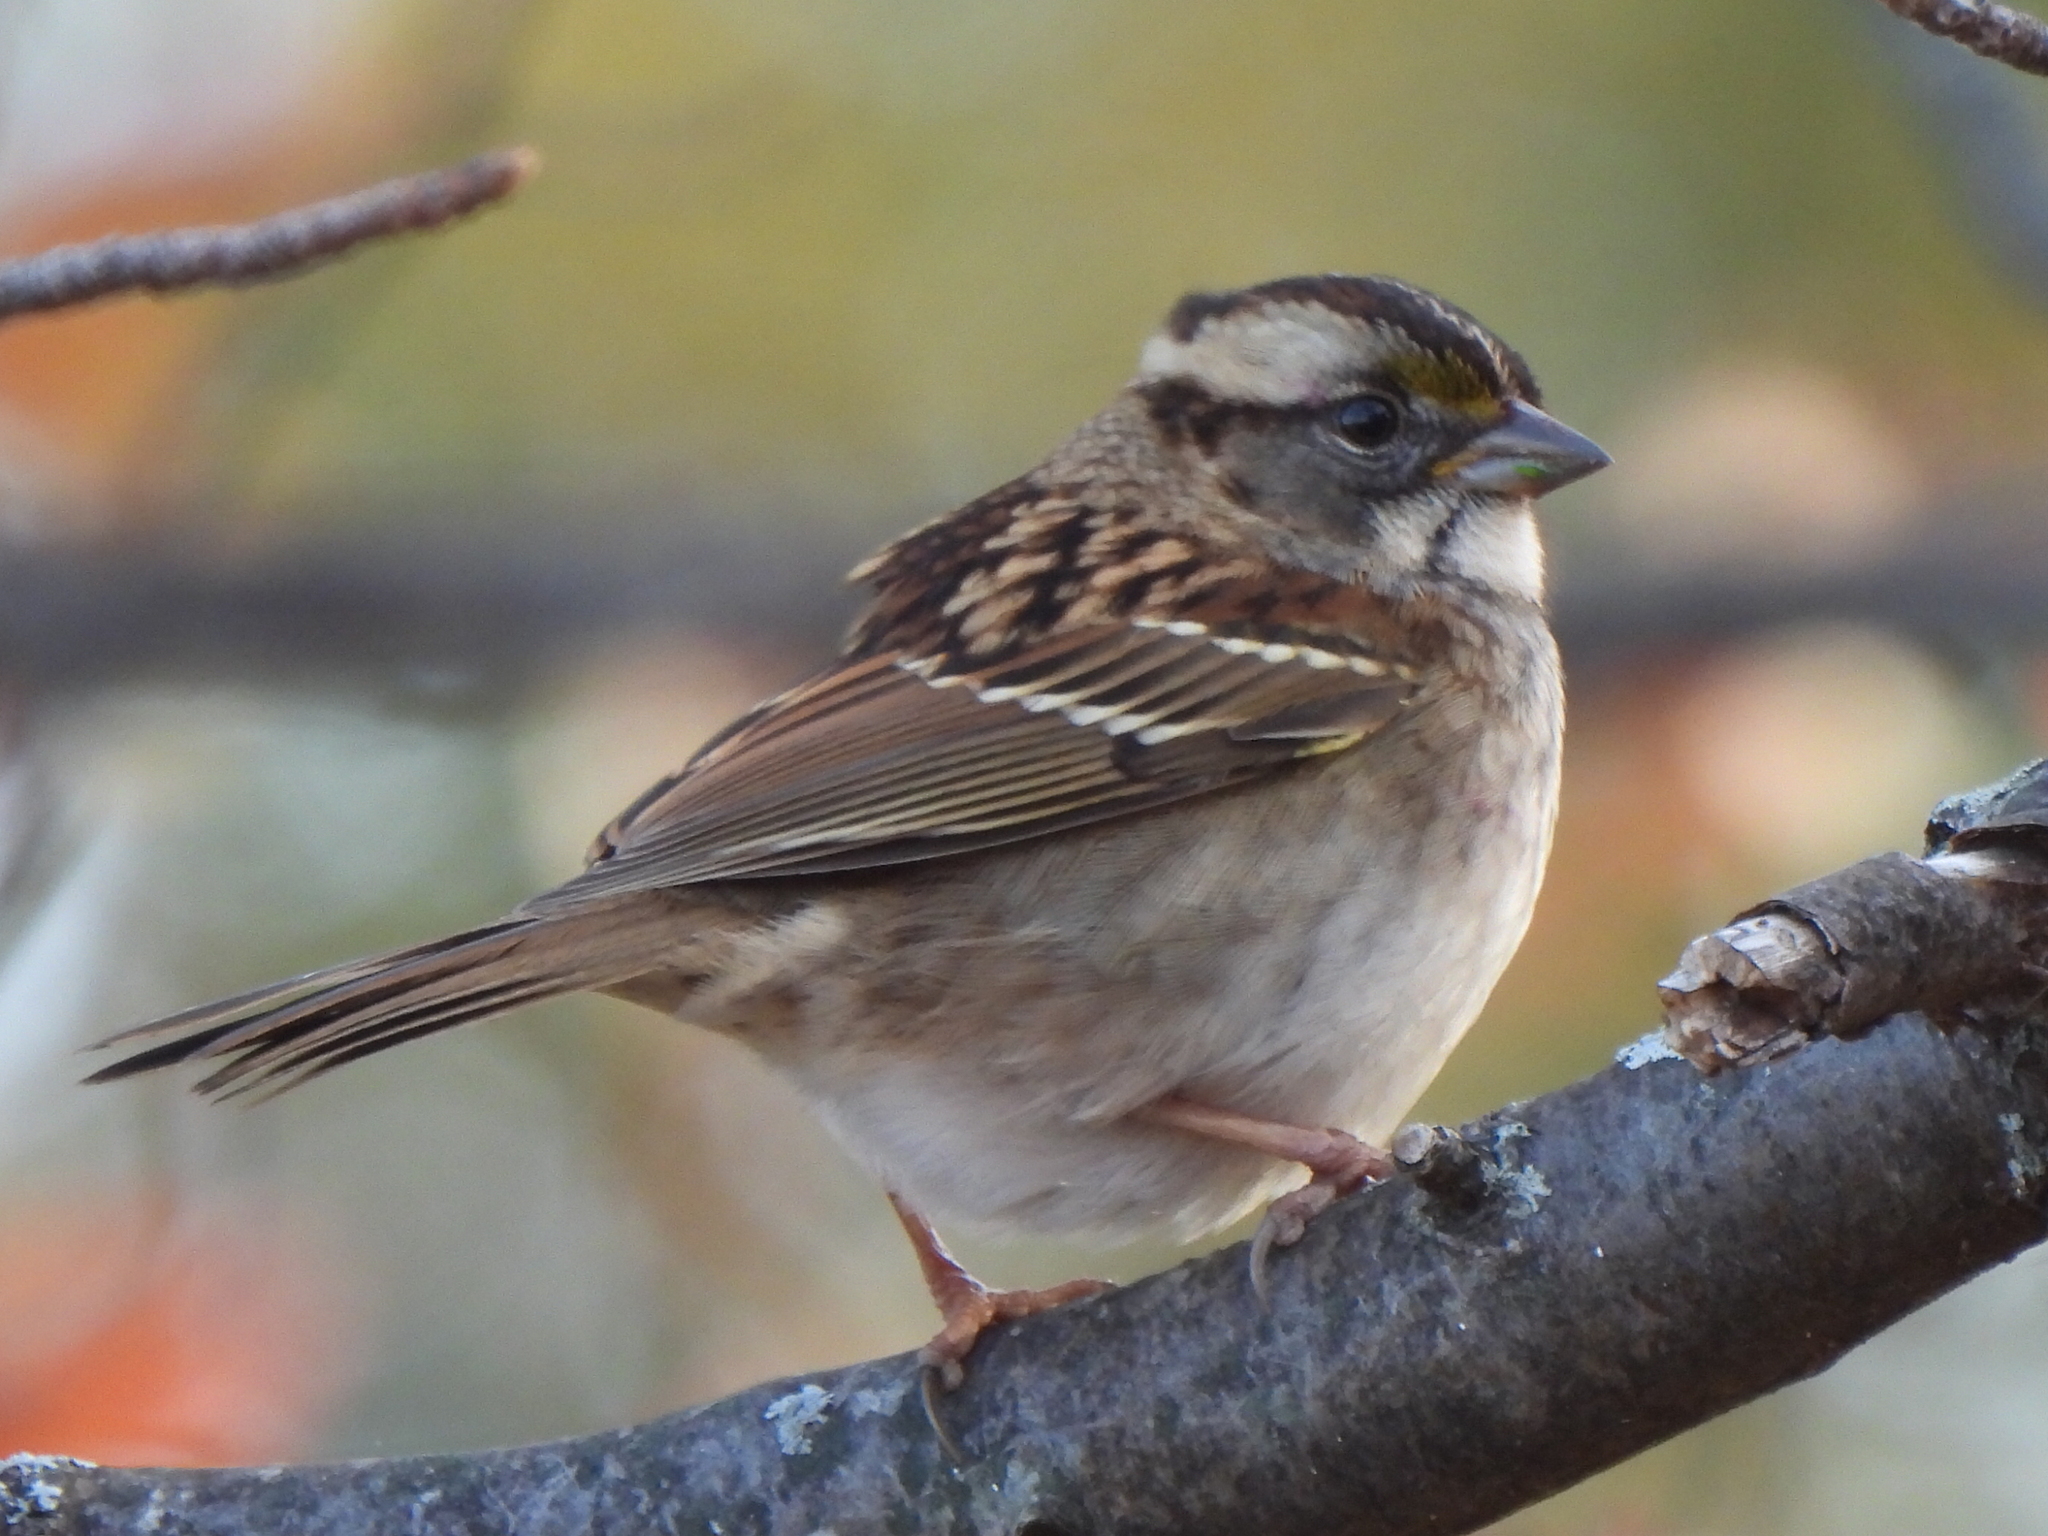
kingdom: Animalia
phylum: Chordata
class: Aves
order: Passeriformes
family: Passerellidae
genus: Zonotrichia
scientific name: Zonotrichia albicollis
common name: White-throated sparrow
